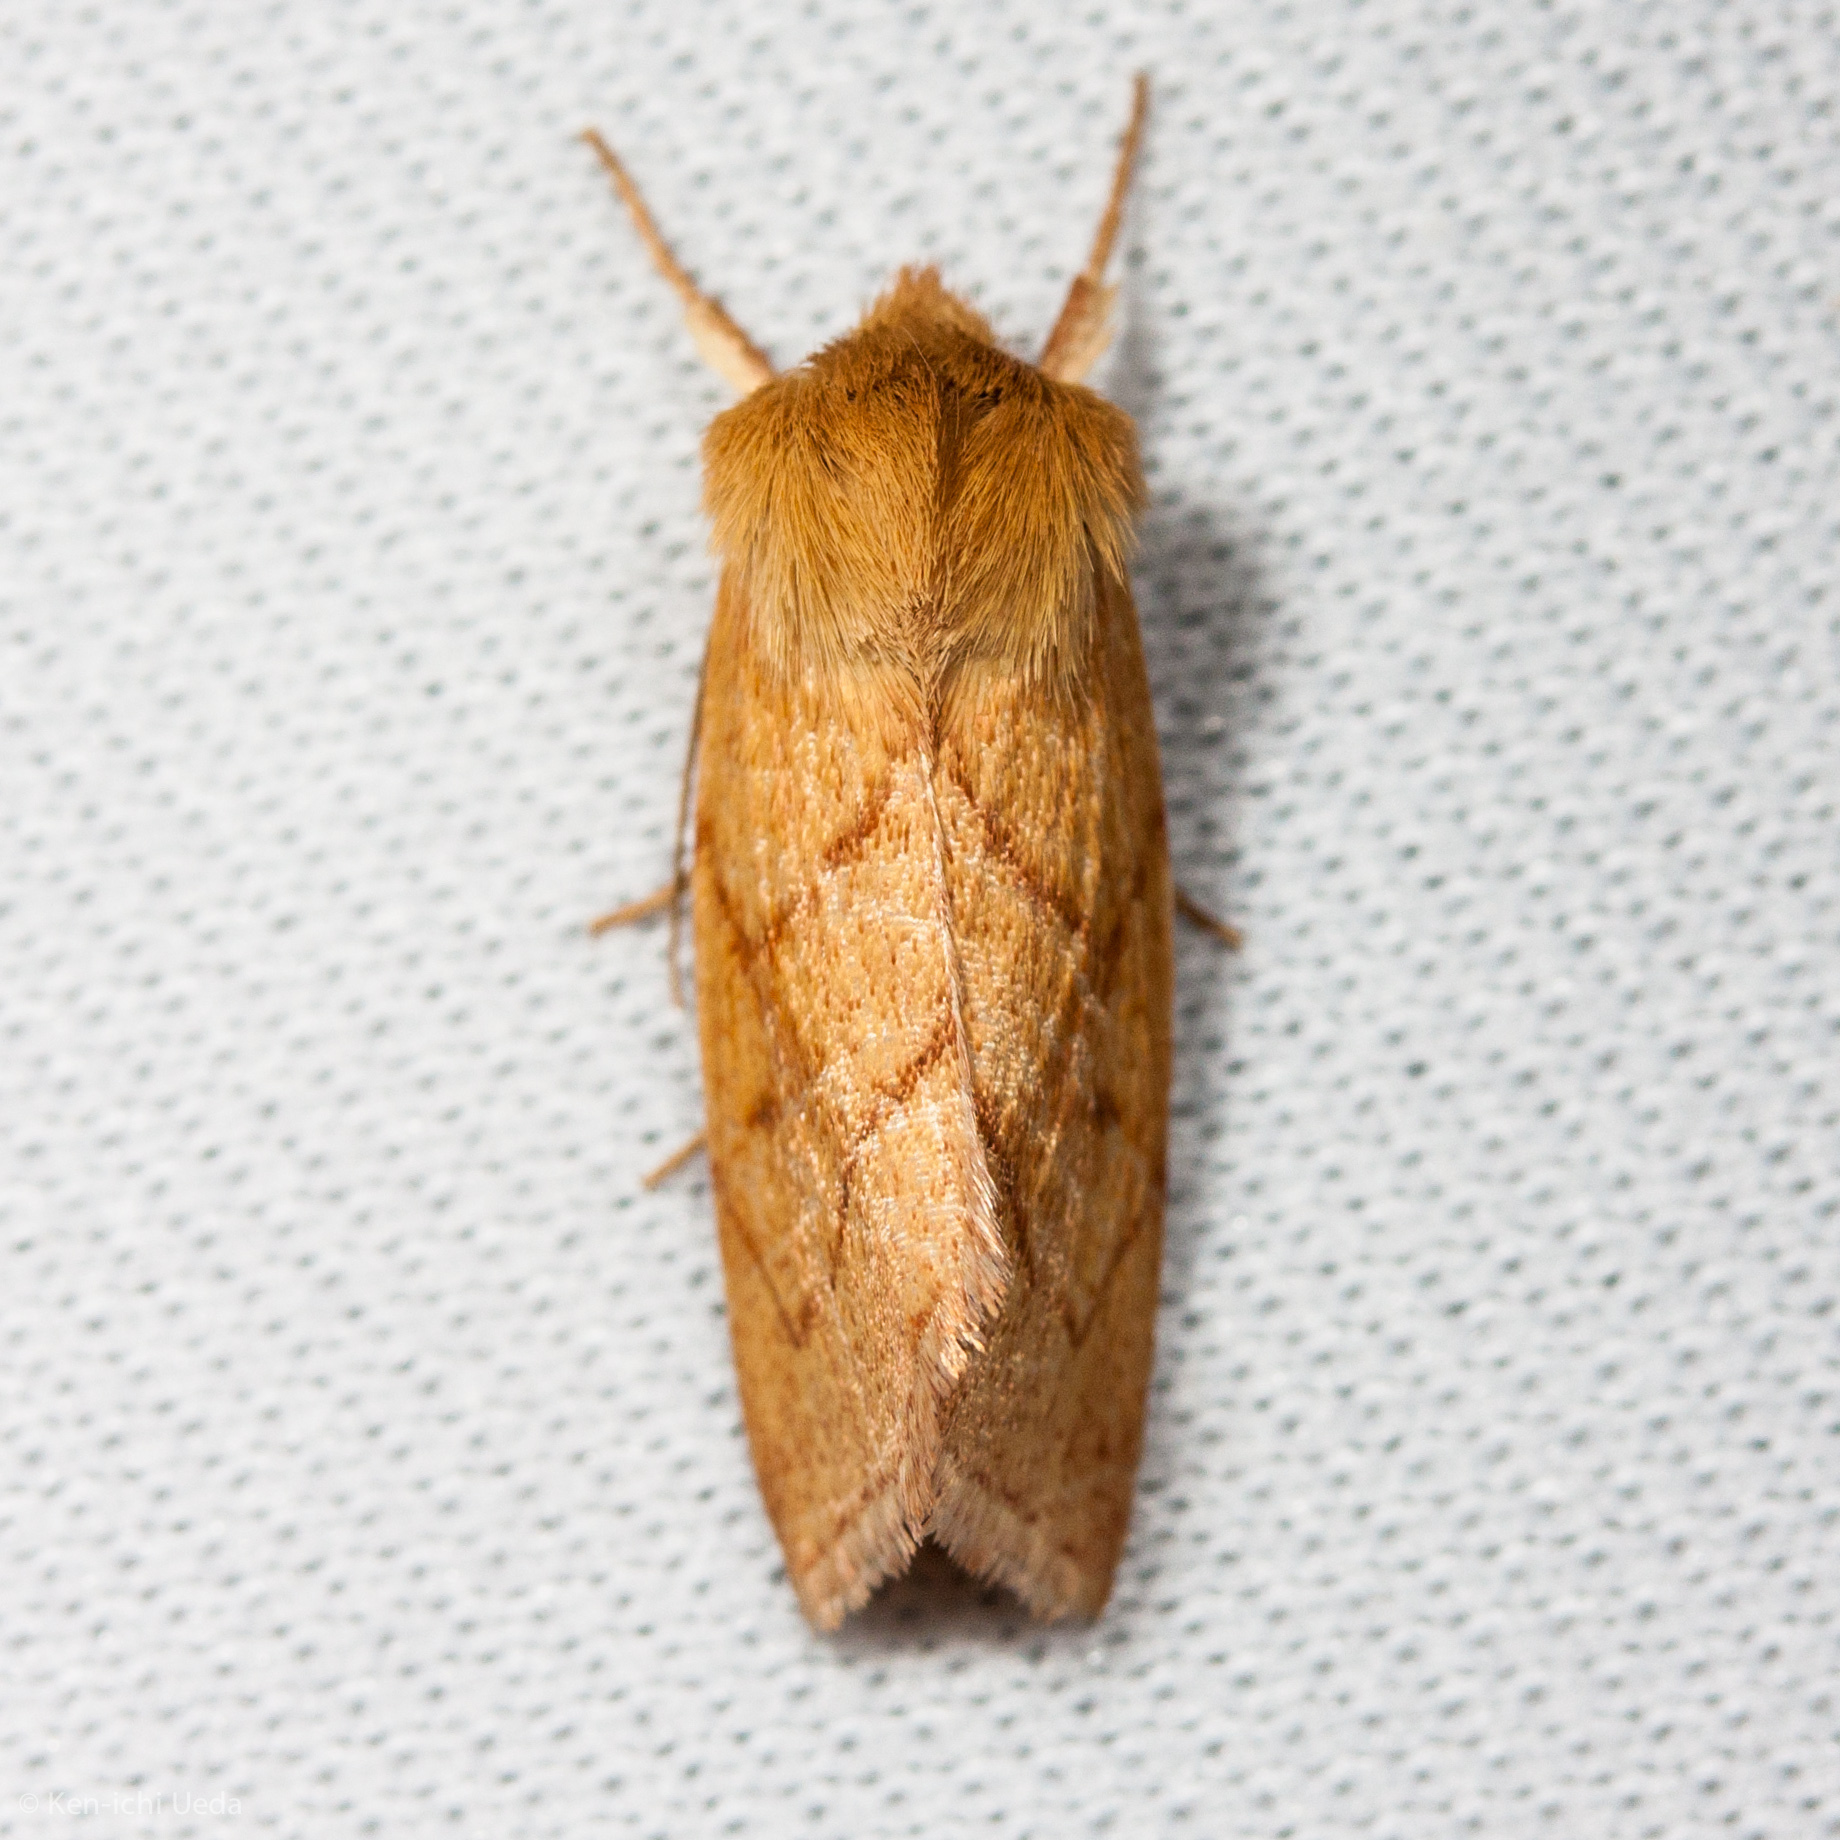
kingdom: Animalia
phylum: Arthropoda
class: Insecta
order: Lepidoptera
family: Noctuidae
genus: Zosteropoda
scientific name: Zosteropoda hirtipes
